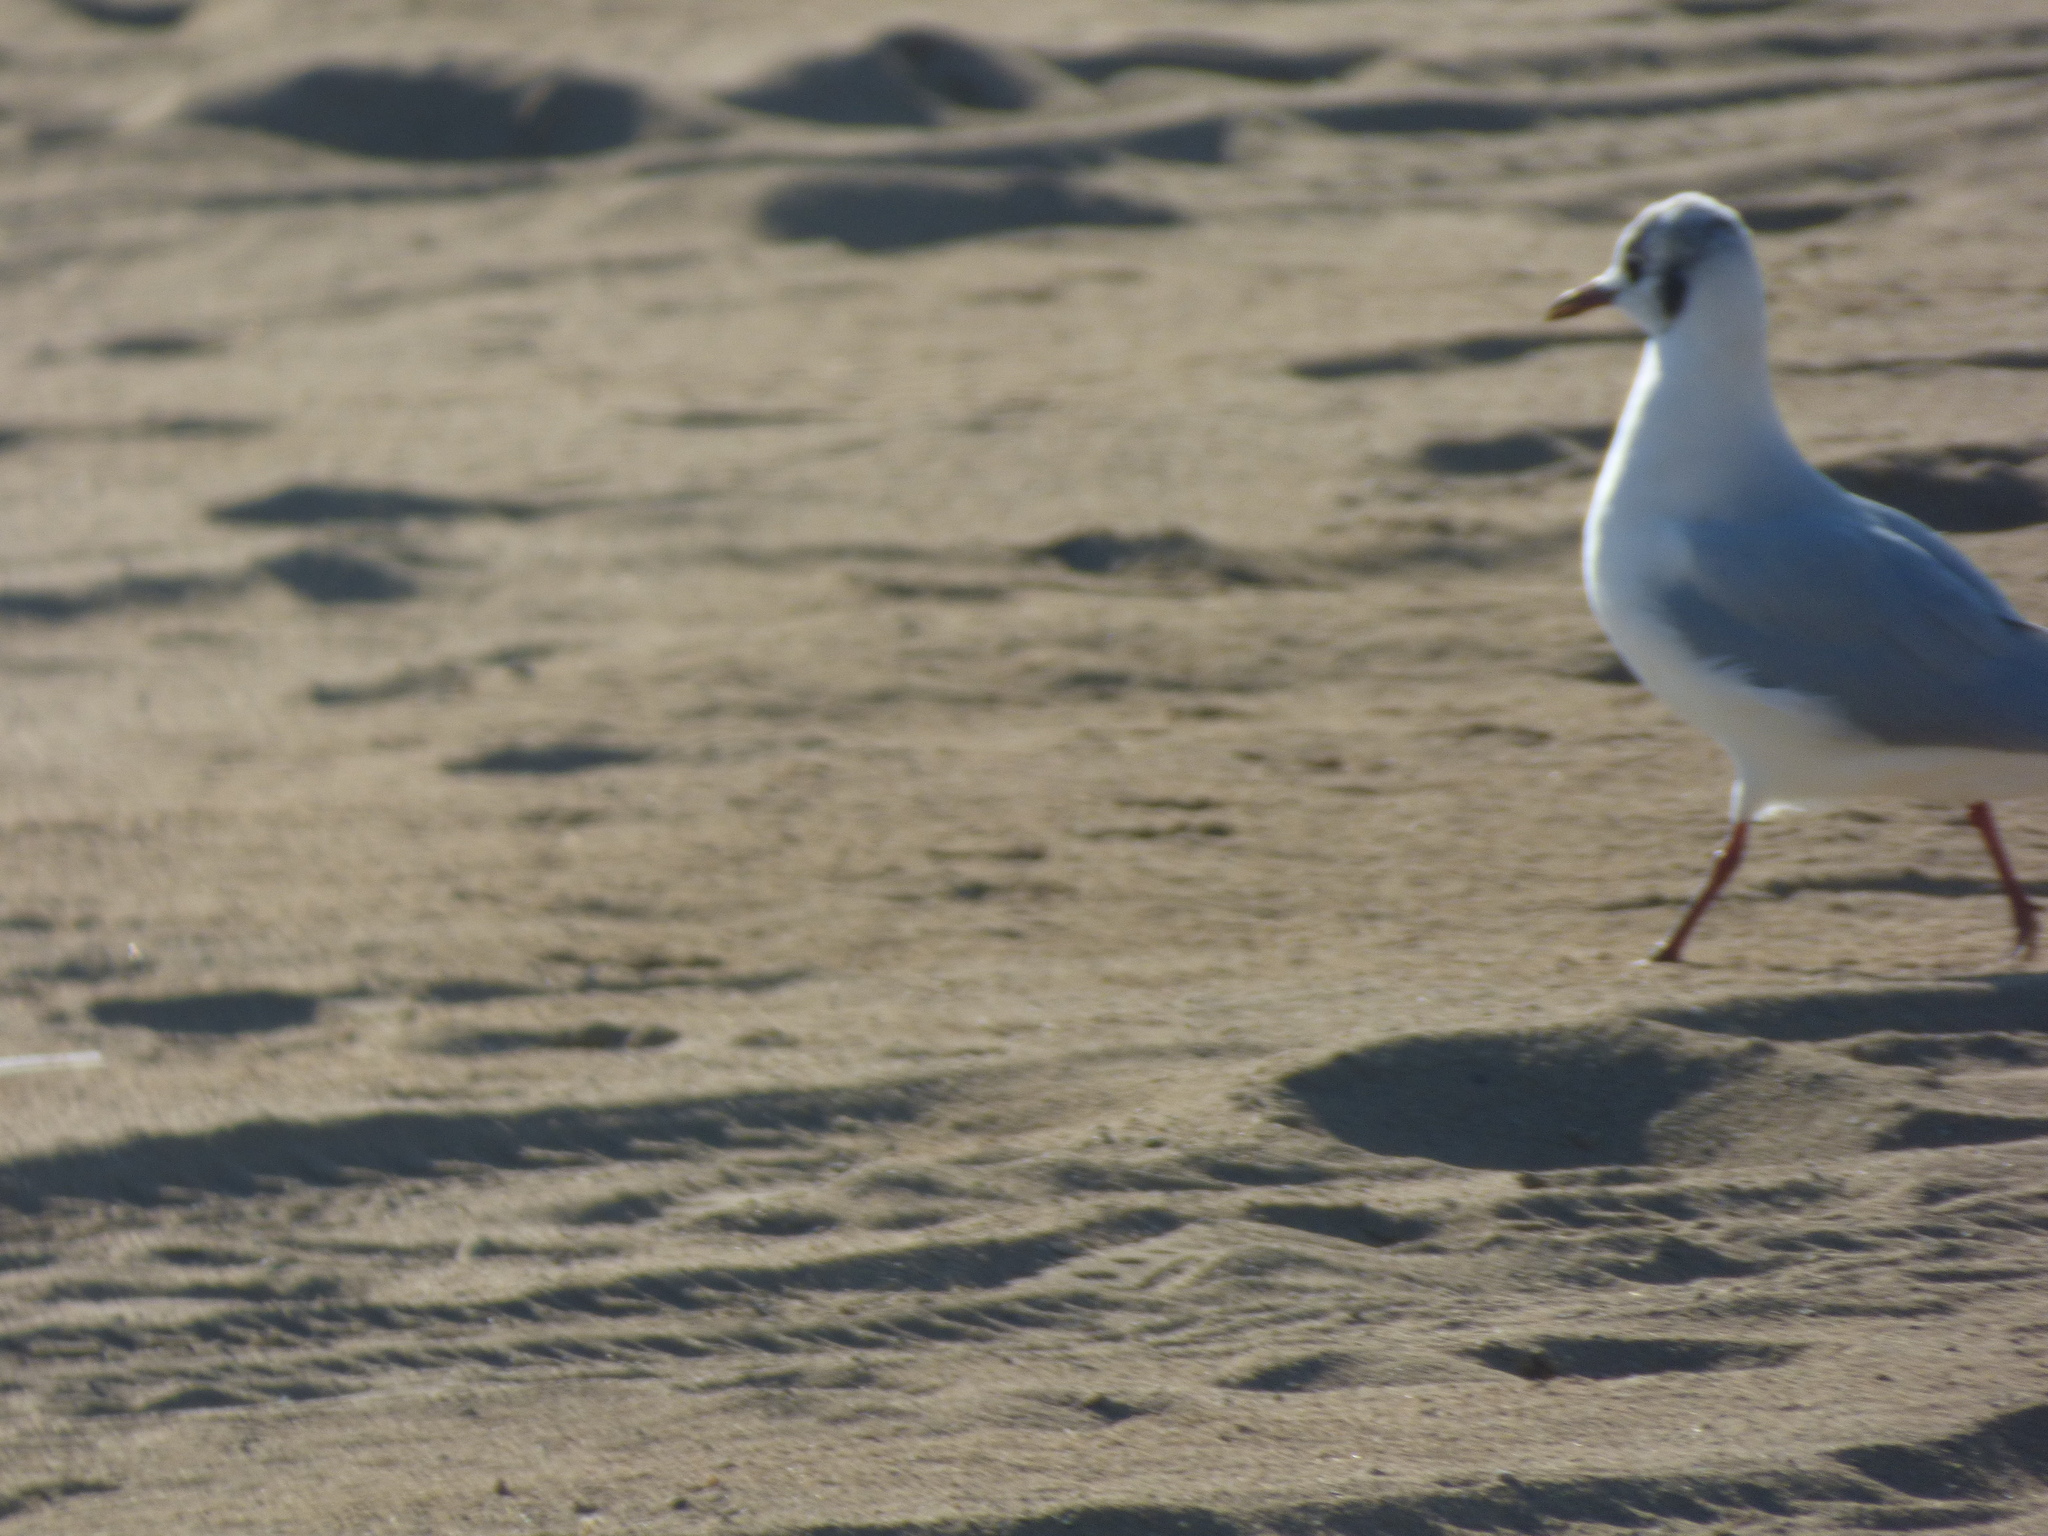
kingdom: Animalia
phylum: Chordata
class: Aves
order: Charadriiformes
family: Laridae
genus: Chroicocephalus
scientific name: Chroicocephalus ridibundus
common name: Black-headed gull
